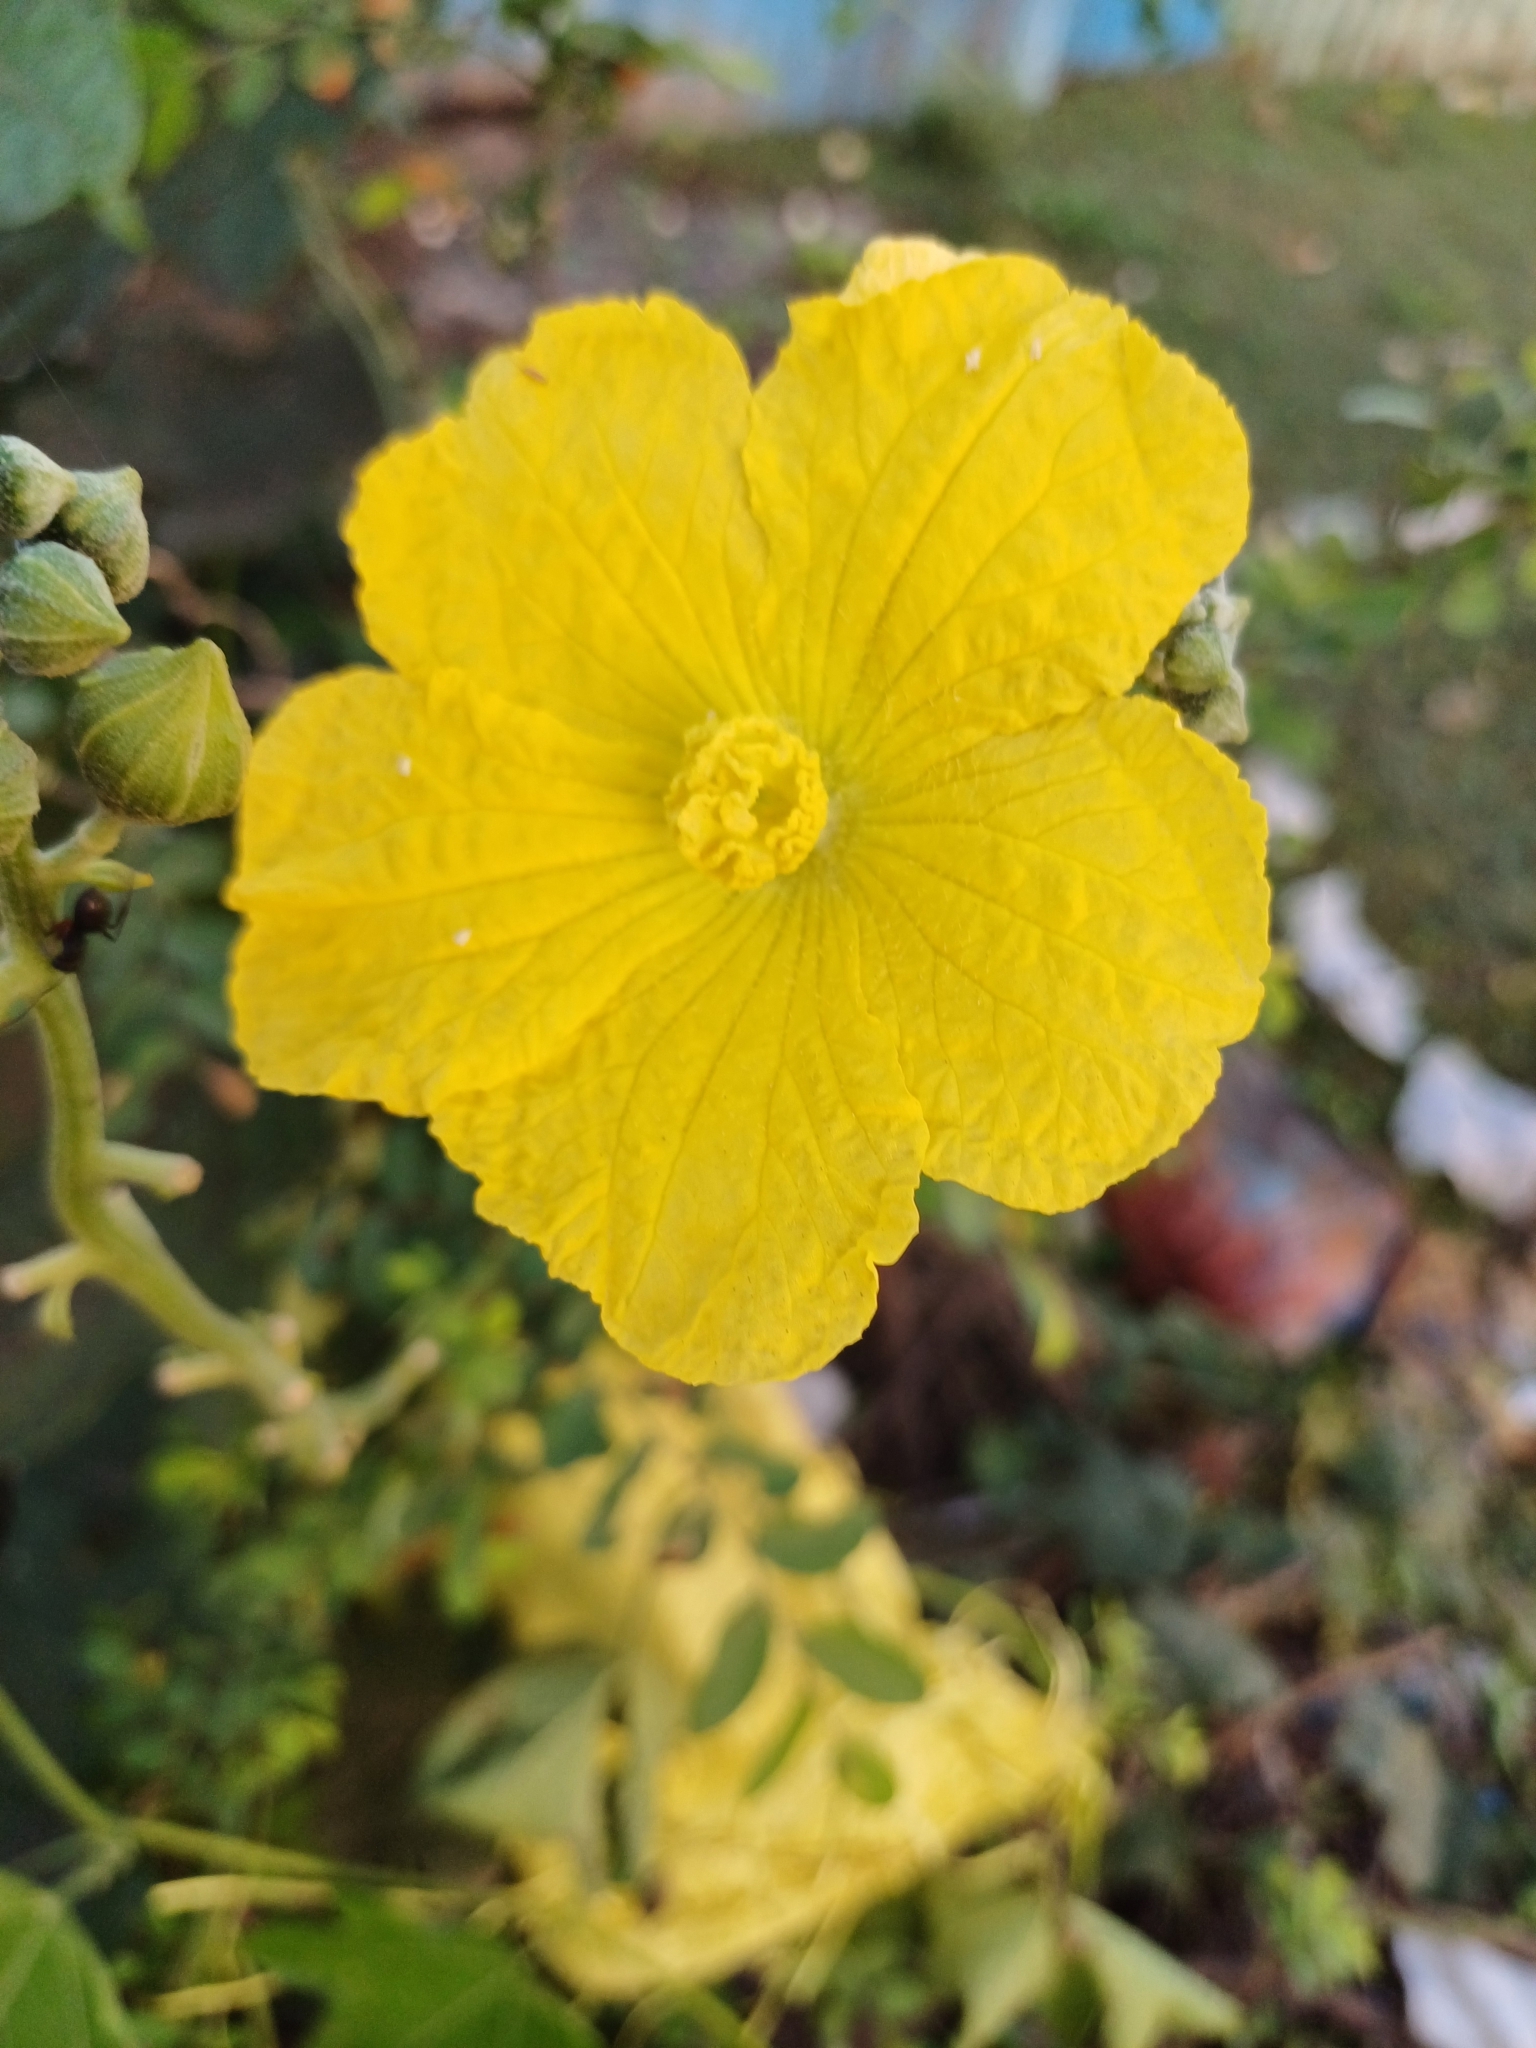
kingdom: Plantae
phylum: Tracheophyta
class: Magnoliopsida
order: Cucurbitales
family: Cucurbitaceae
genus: Luffa
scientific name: Luffa aegyptiaca
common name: Sponge gourd
